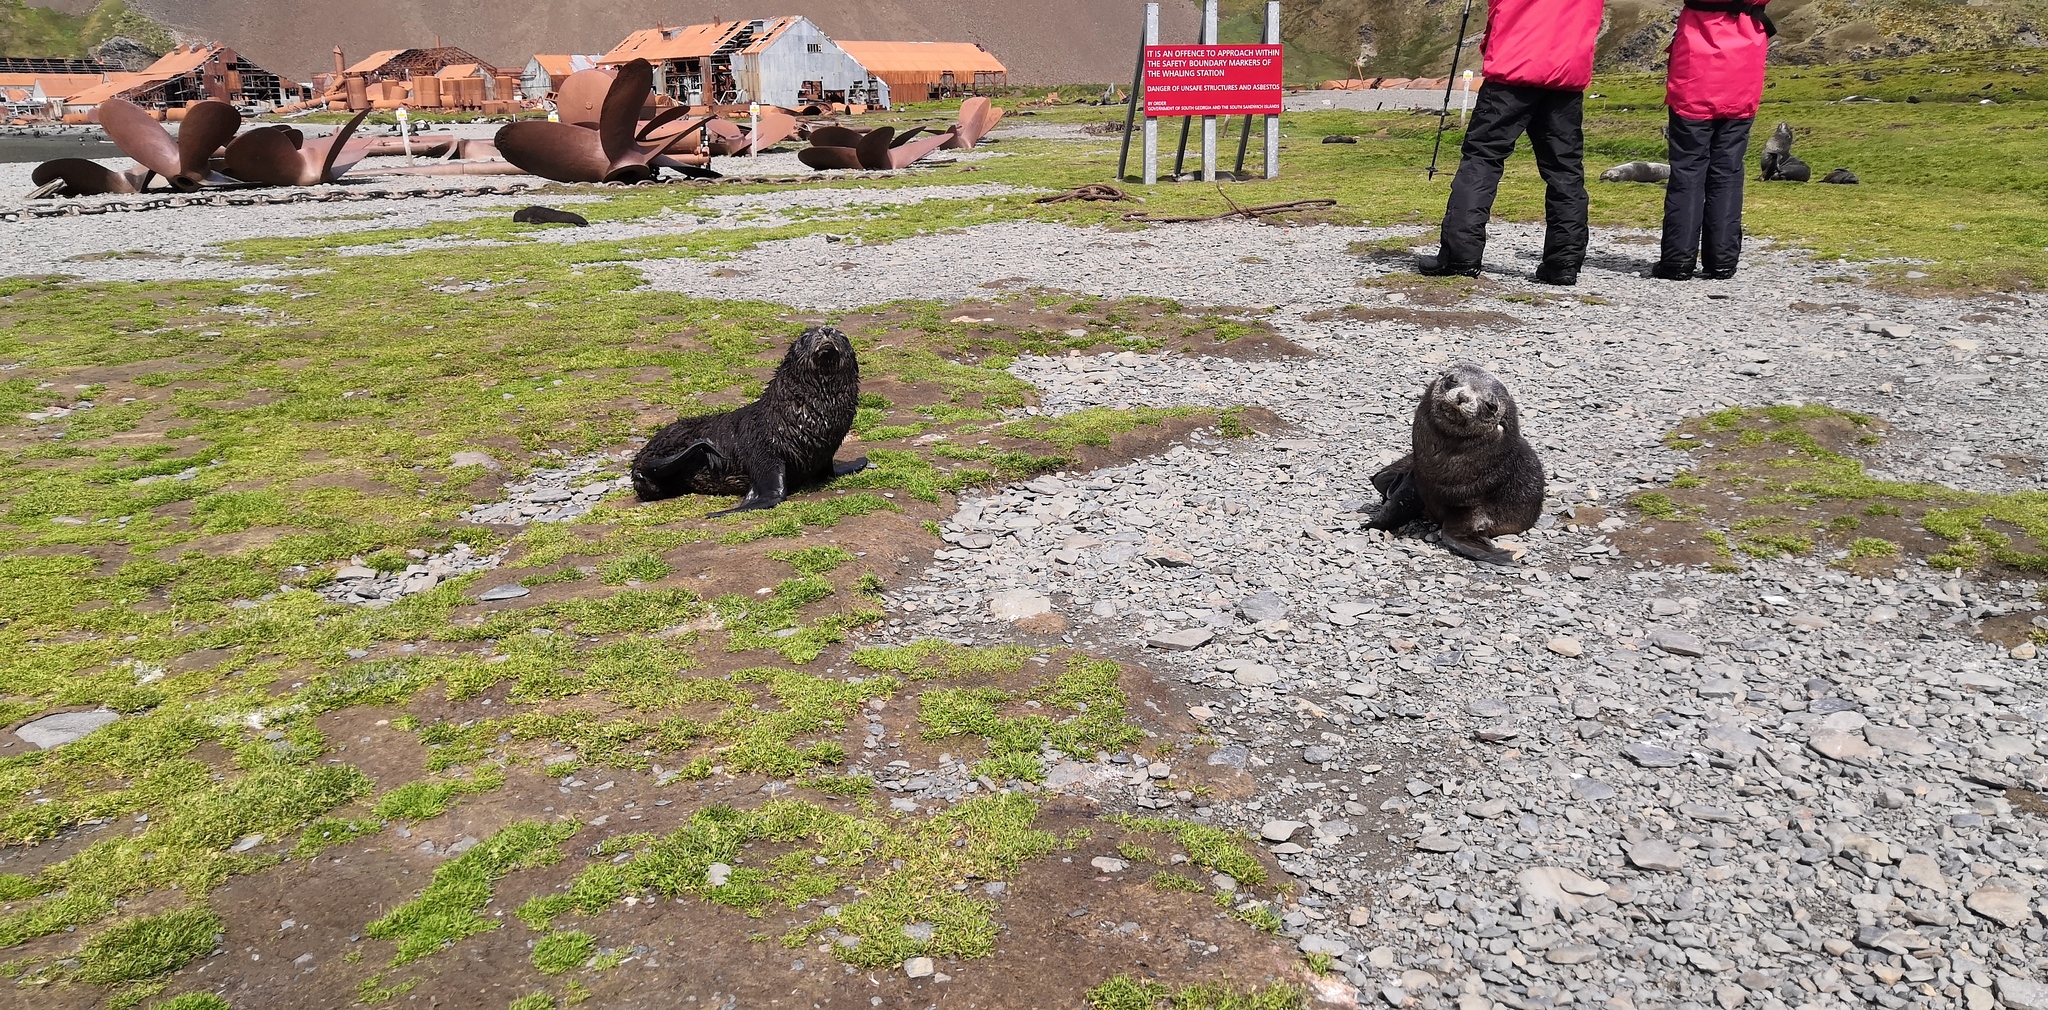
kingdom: Animalia
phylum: Chordata
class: Mammalia
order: Carnivora
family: Otariidae
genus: Arctocephalus
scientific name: Arctocephalus gazella
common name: Antarctic fur seal
